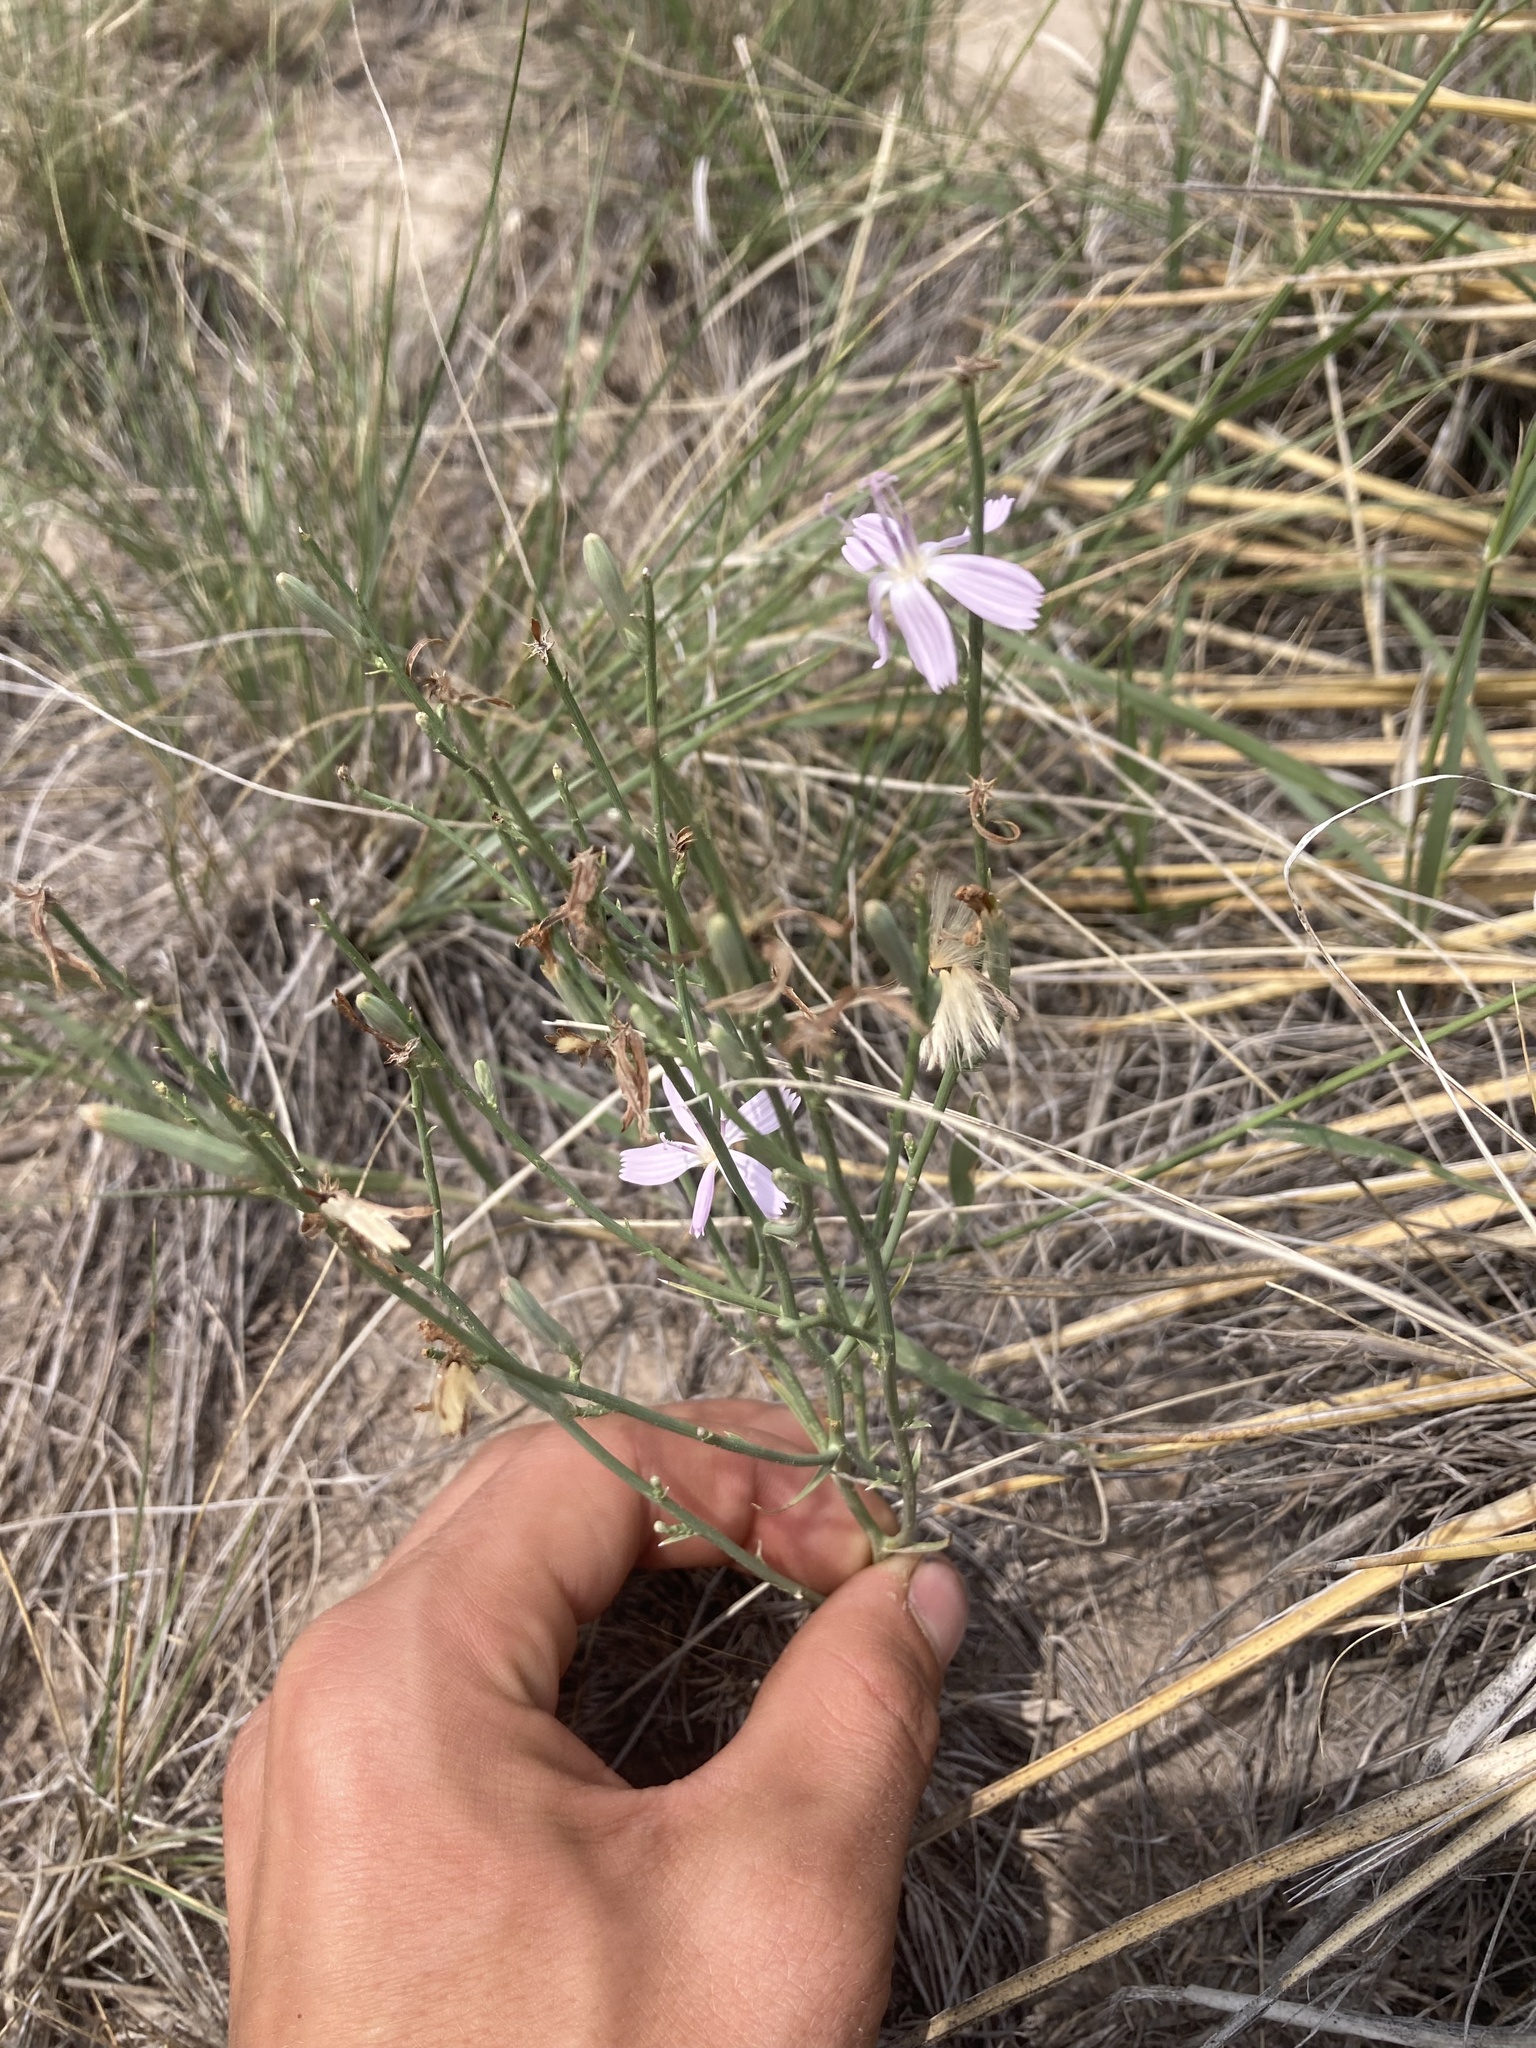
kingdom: Plantae
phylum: Tracheophyta
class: Magnoliopsida
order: Asterales
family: Asteraceae
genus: Lygodesmia
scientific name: Lygodesmia juncea
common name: Common skeletonweed
